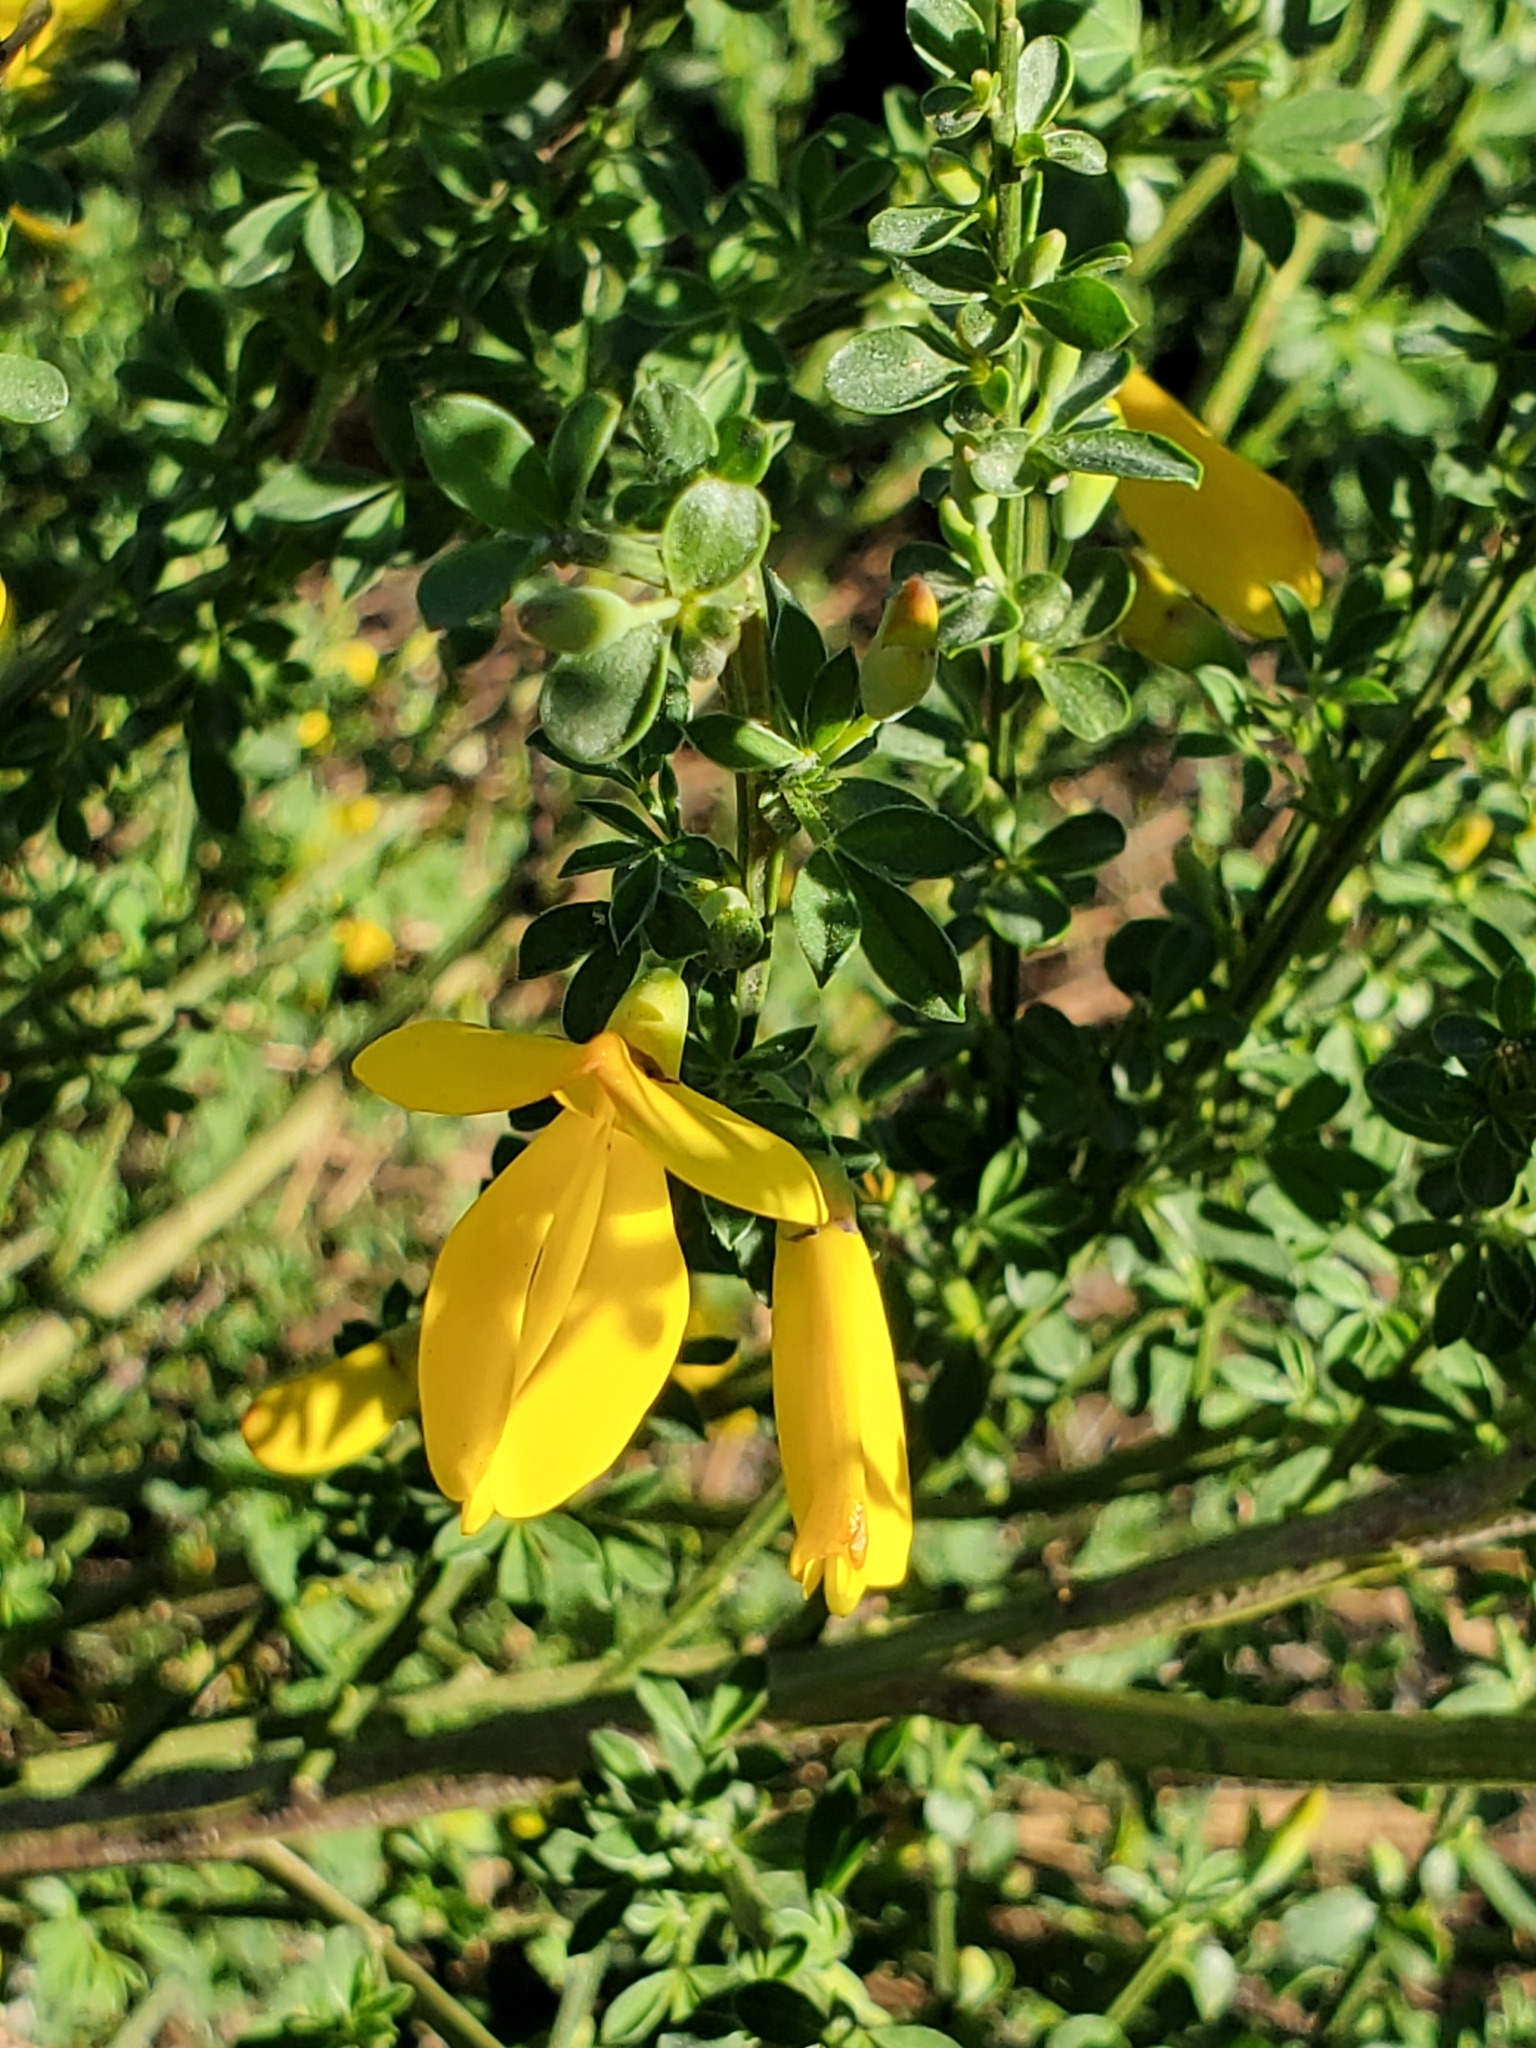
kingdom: Plantae
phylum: Tracheophyta
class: Magnoliopsida
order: Fabales
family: Fabaceae
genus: Cytisus
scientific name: Cytisus scoparius
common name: Scotch broom
